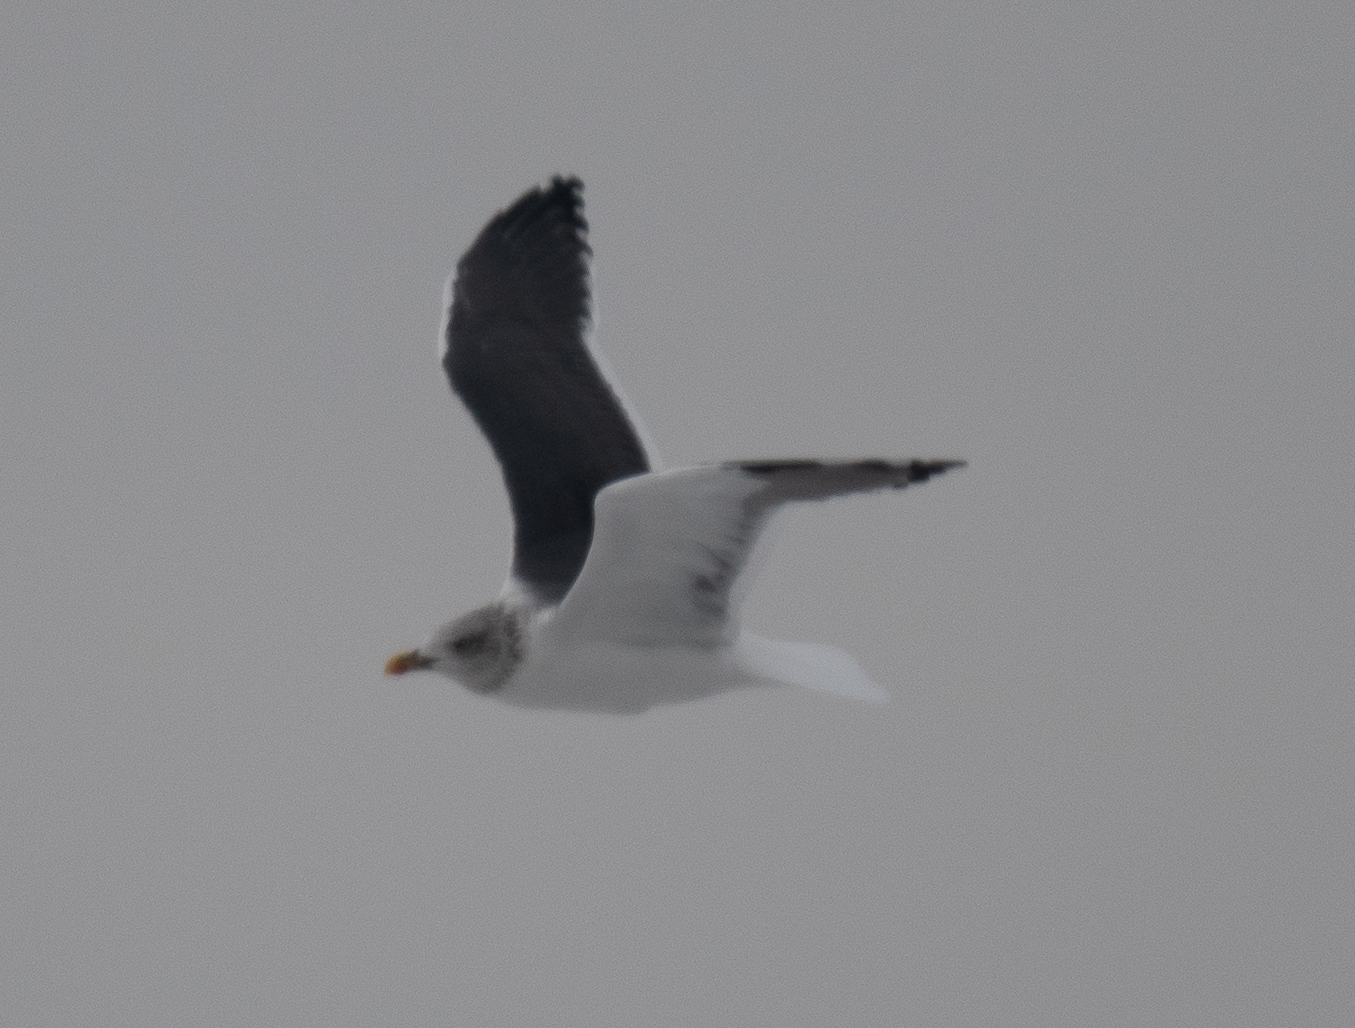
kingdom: Animalia
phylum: Chordata
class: Aves
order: Charadriiformes
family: Laridae
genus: Larus
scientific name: Larus fuscus
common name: Lesser black-backed gull
